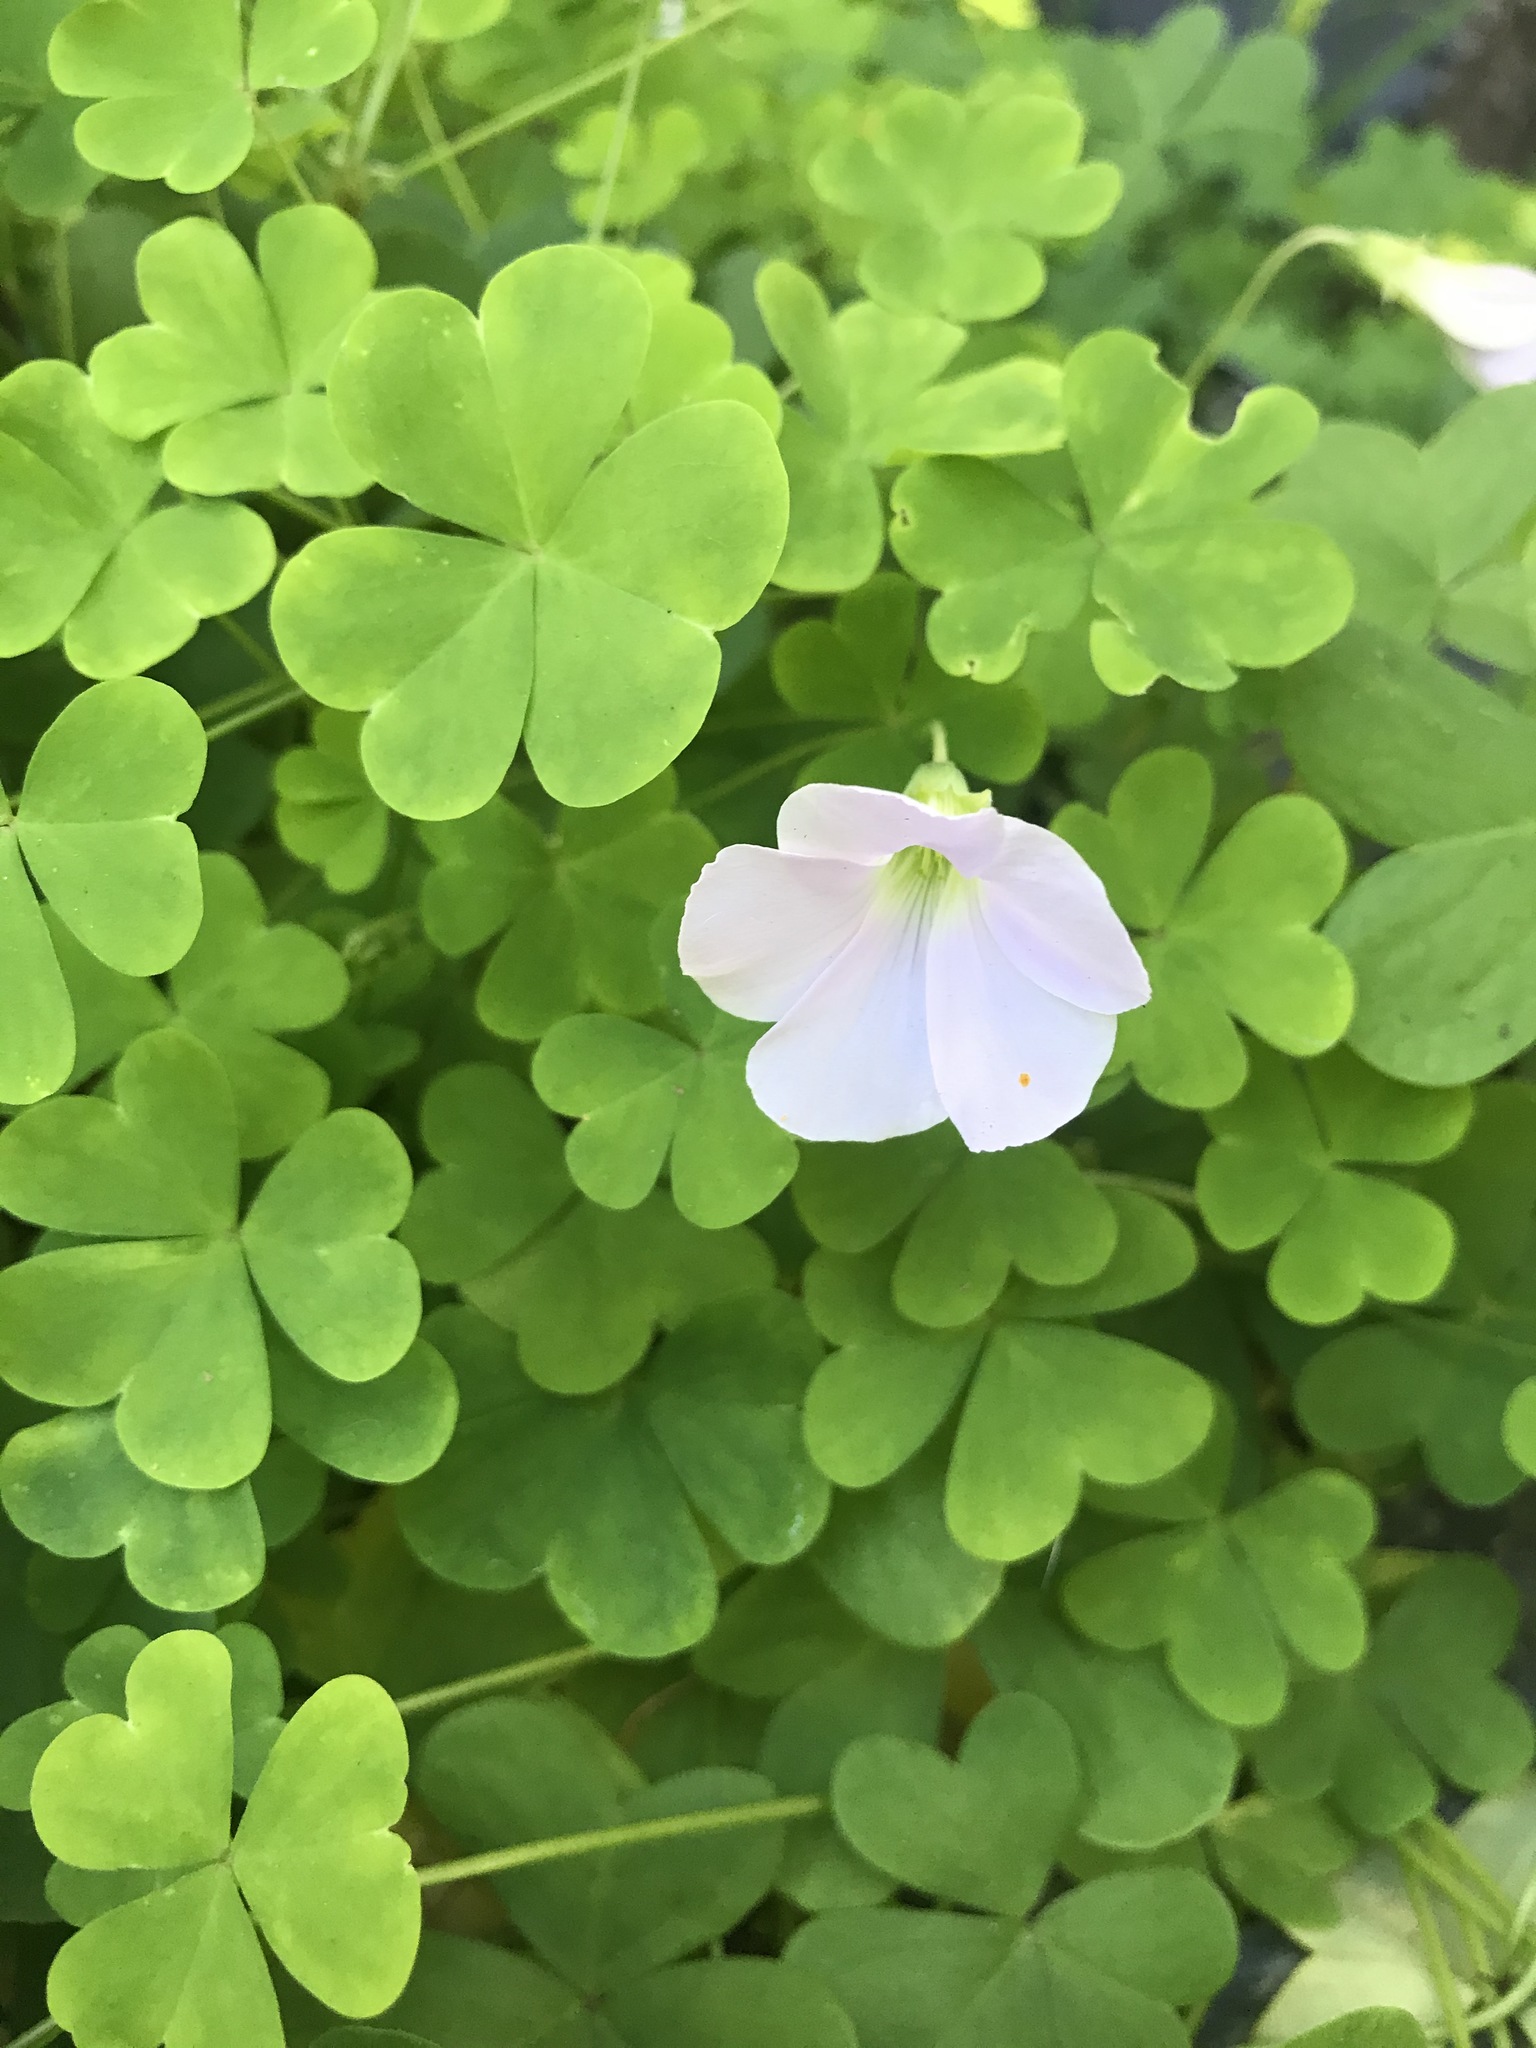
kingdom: Plantae
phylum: Tracheophyta
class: Magnoliopsida
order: Oxalidales
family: Oxalidaceae
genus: Oxalis
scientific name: Oxalis incarnata
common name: Pale pink-sorrel
